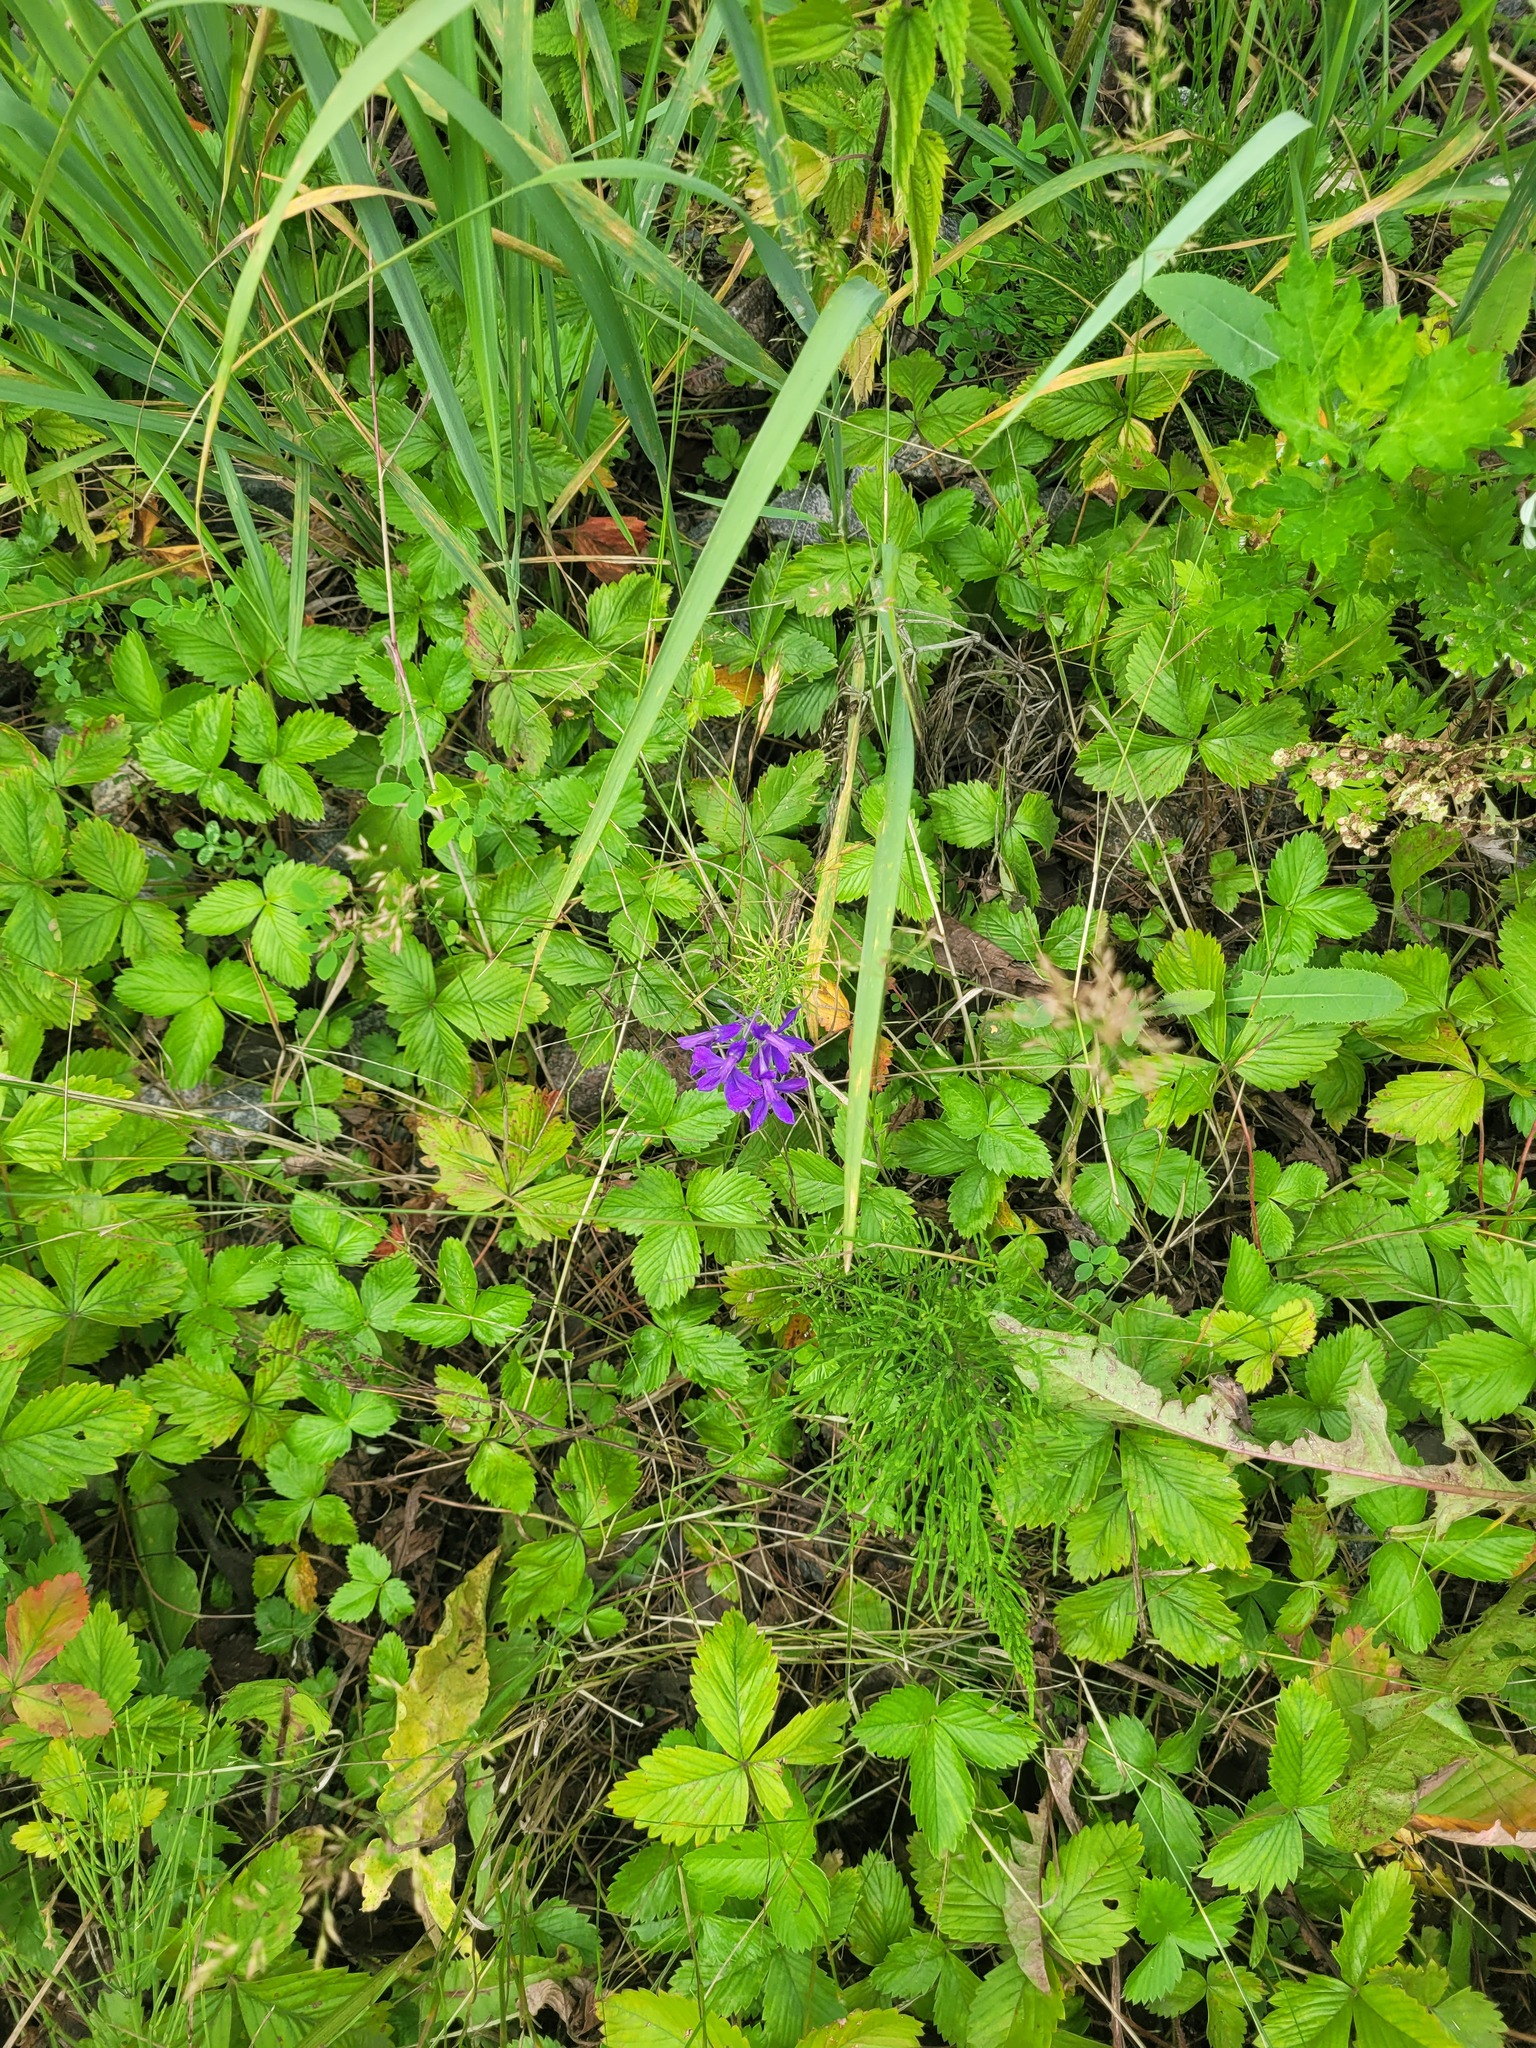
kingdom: Plantae
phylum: Tracheophyta
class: Magnoliopsida
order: Ranunculales
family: Ranunculaceae
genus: Delphinium
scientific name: Delphinium consolida
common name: Branching larkspur
